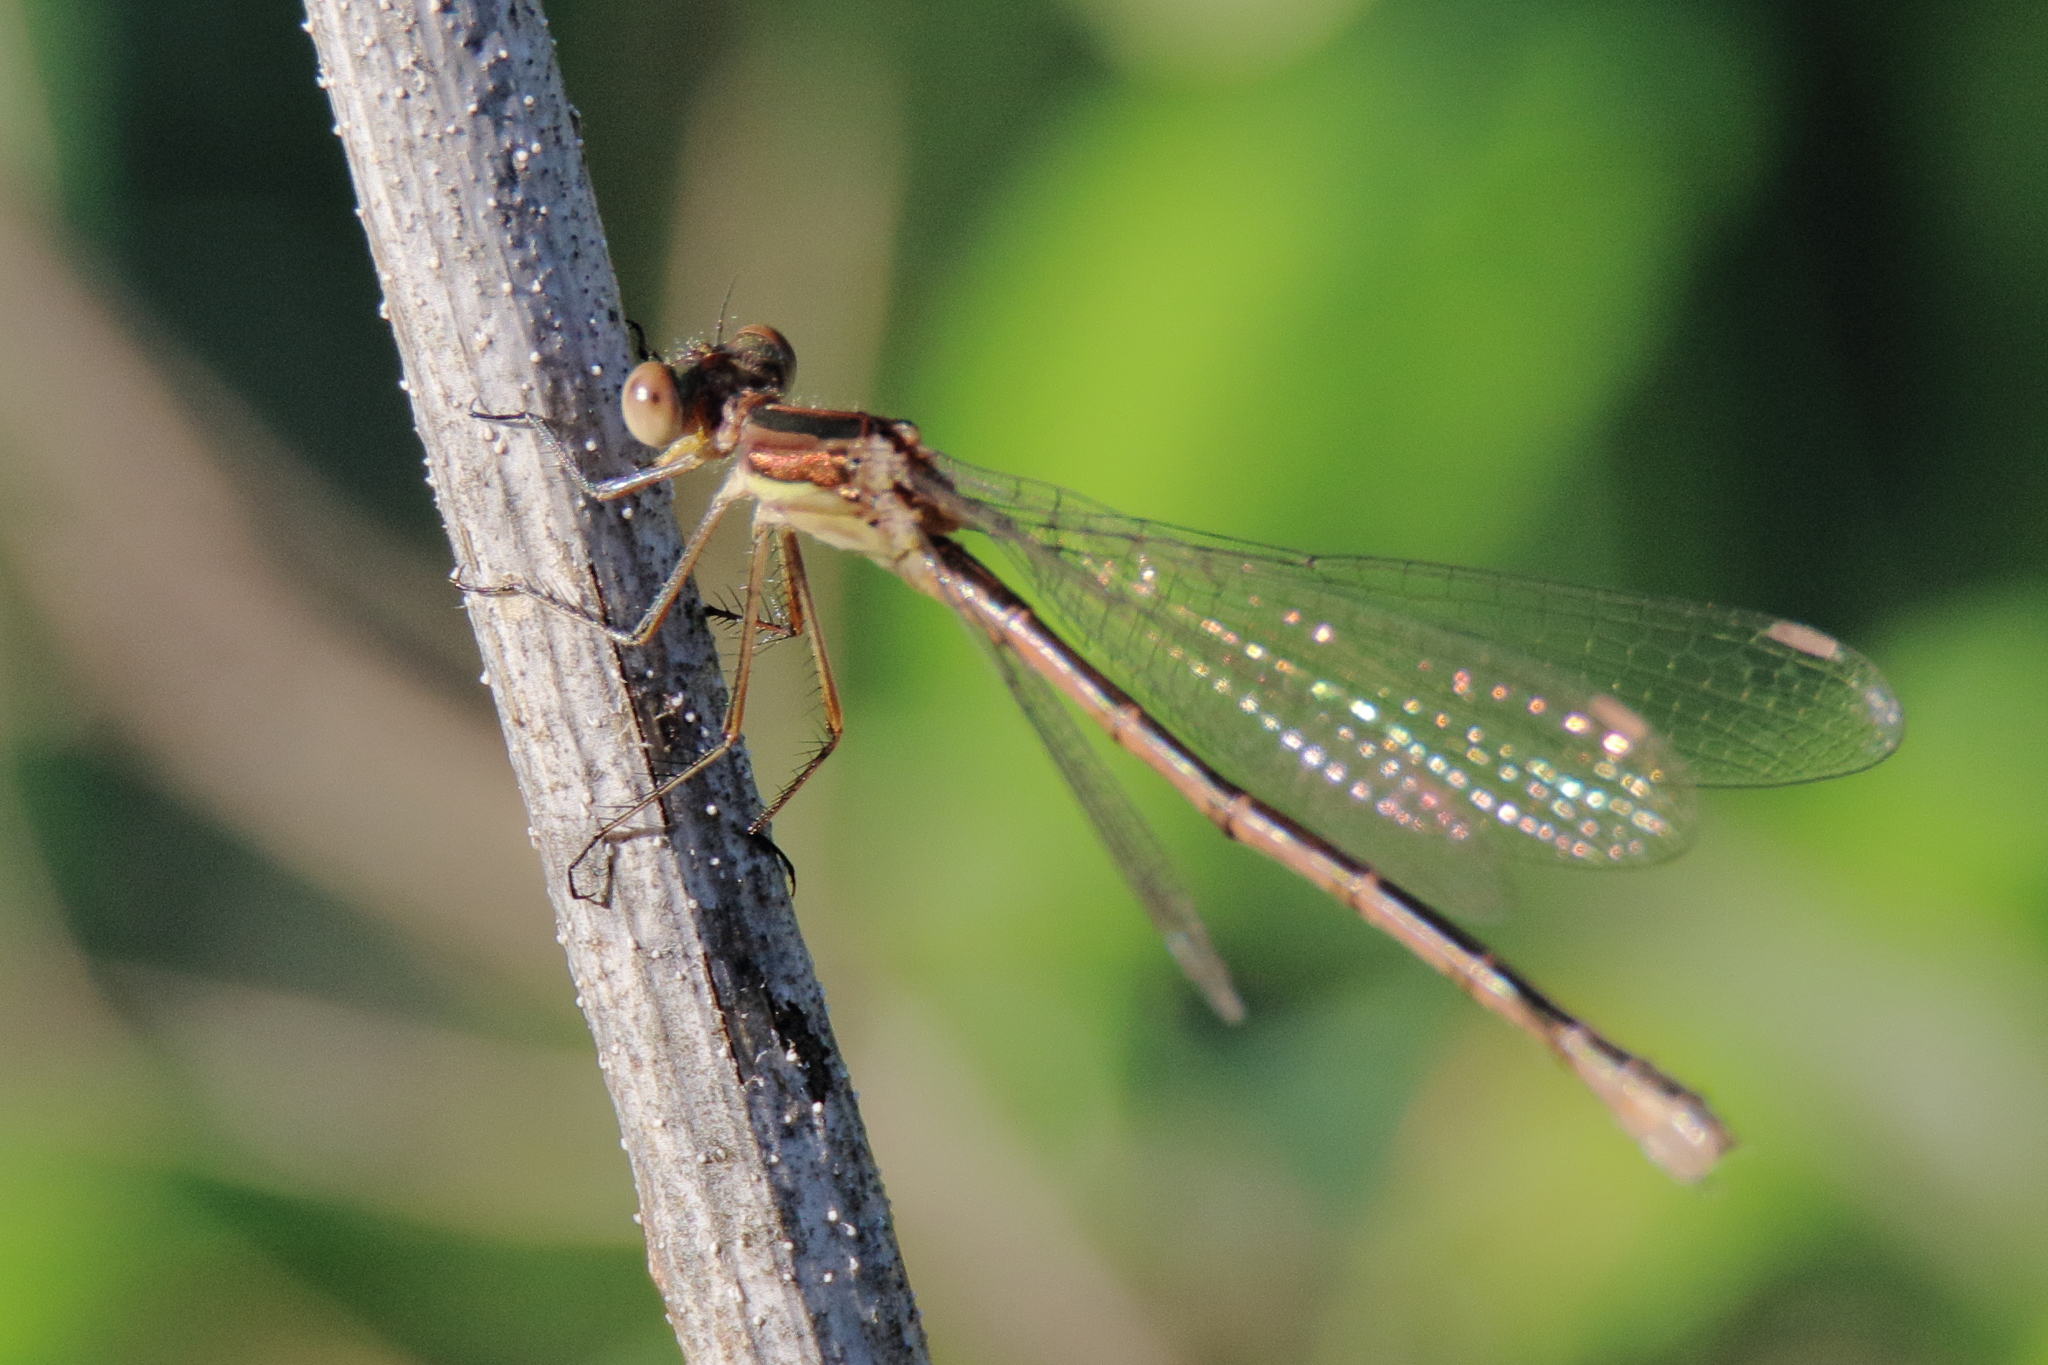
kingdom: Animalia
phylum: Arthropoda
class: Insecta
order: Odonata
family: Lestidae
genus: Lestes
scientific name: Lestes australis
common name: Southern spreadwing
